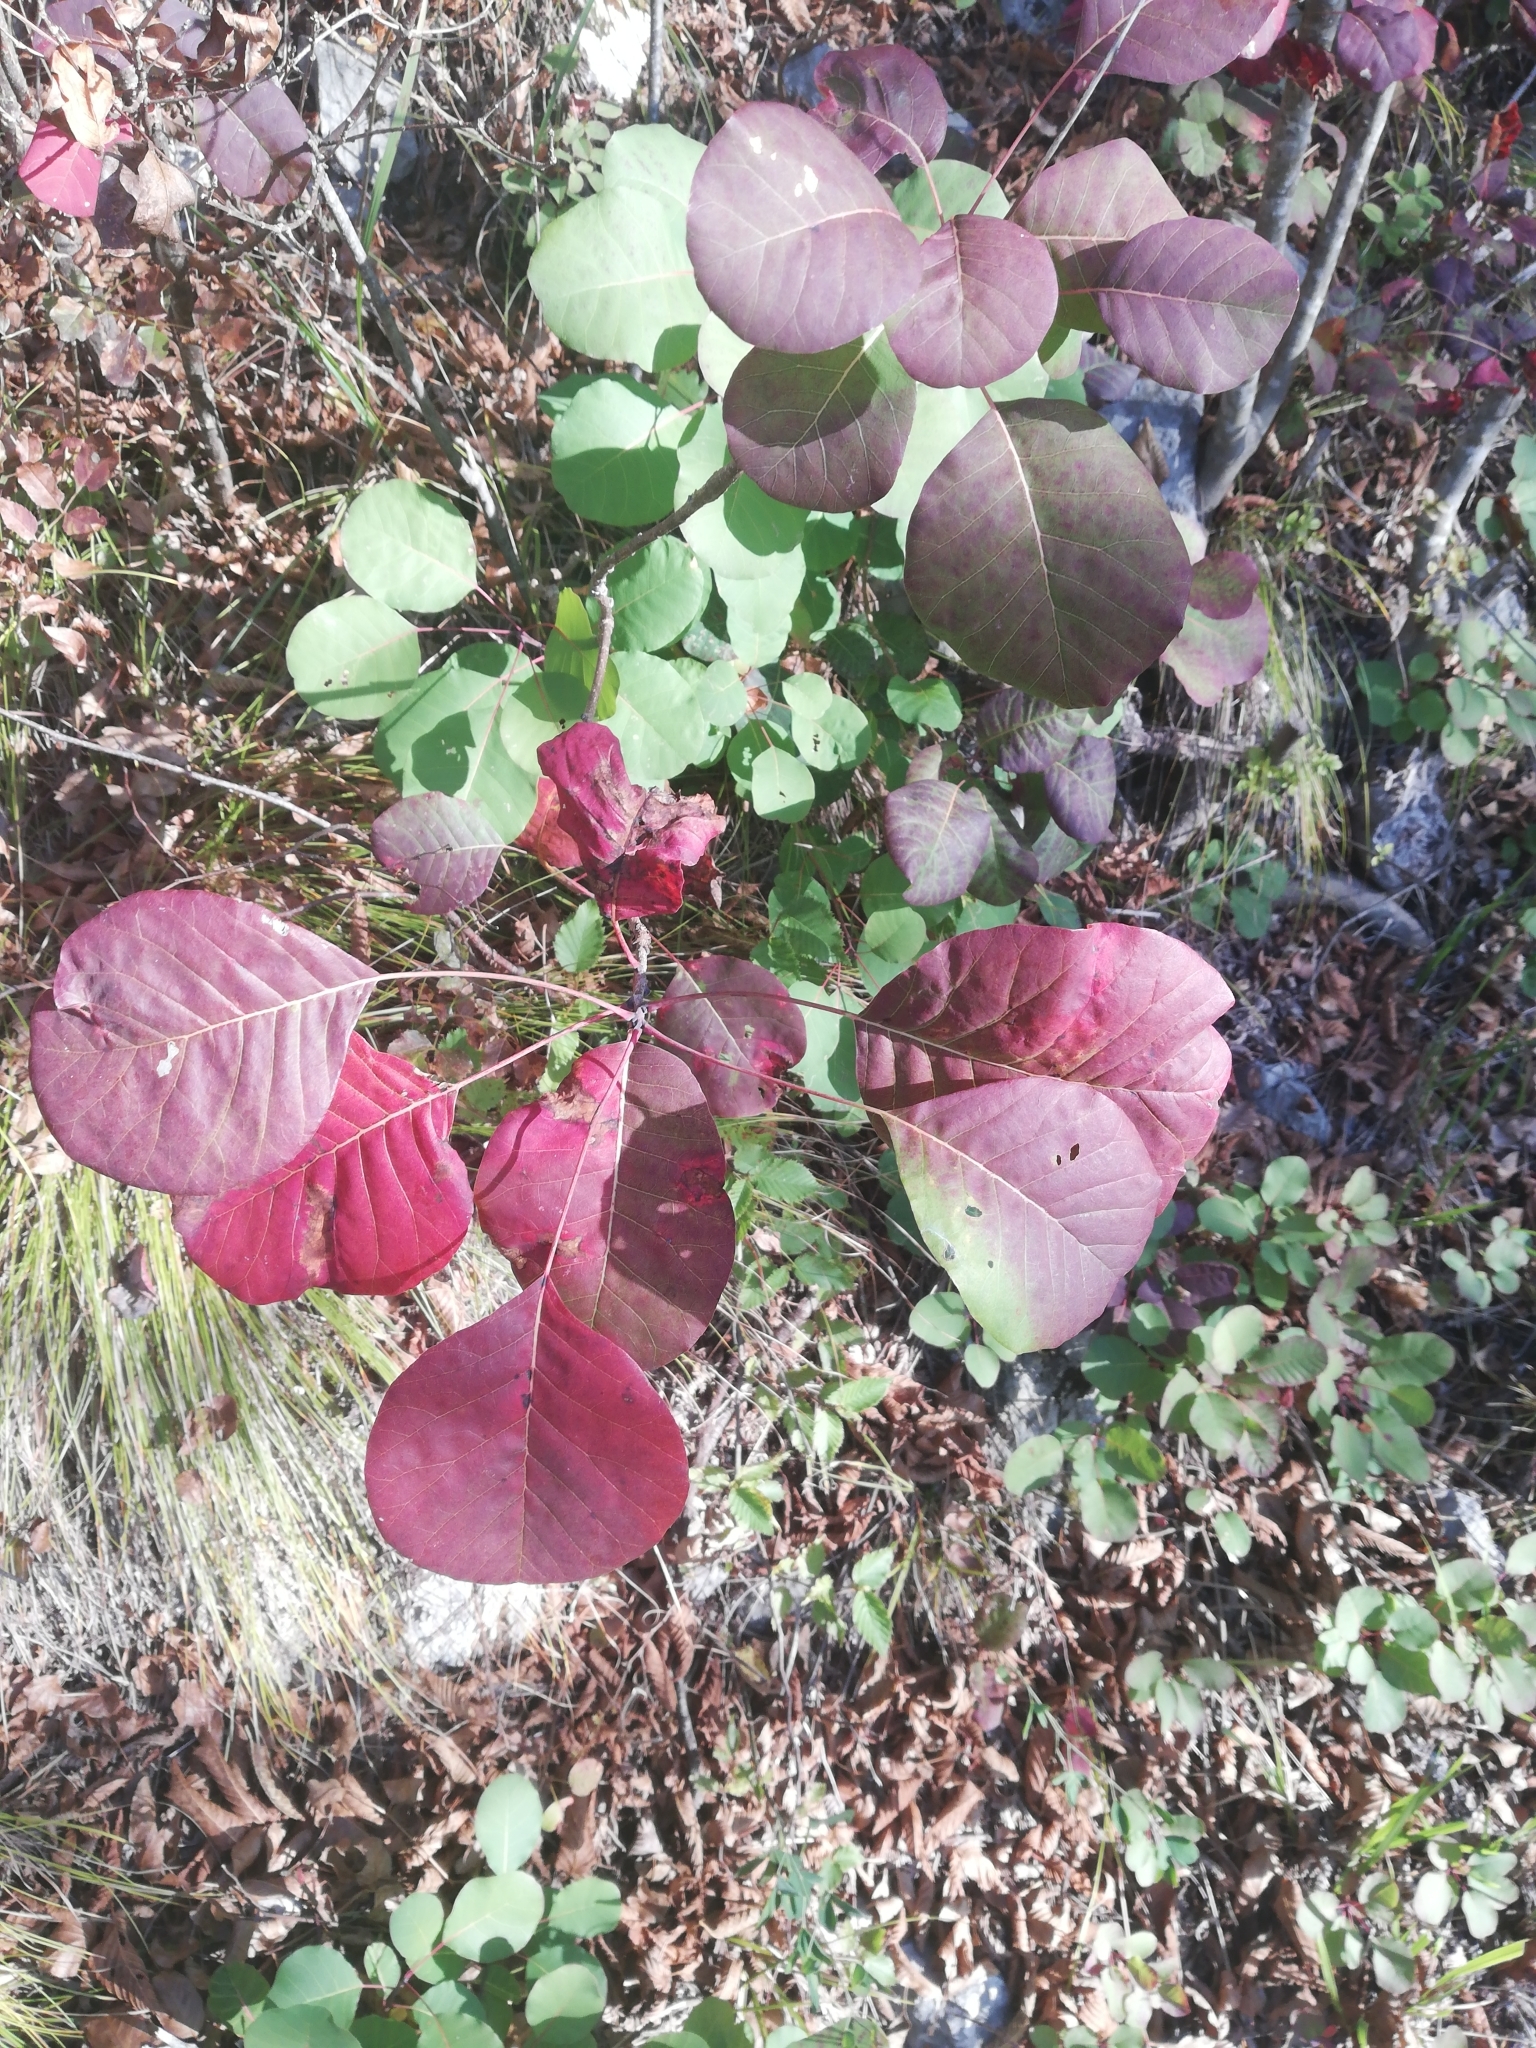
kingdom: Plantae
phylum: Tracheophyta
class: Magnoliopsida
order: Sapindales
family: Anacardiaceae
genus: Cotinus
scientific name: Cotinus coggygria
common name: Smoke-tree
